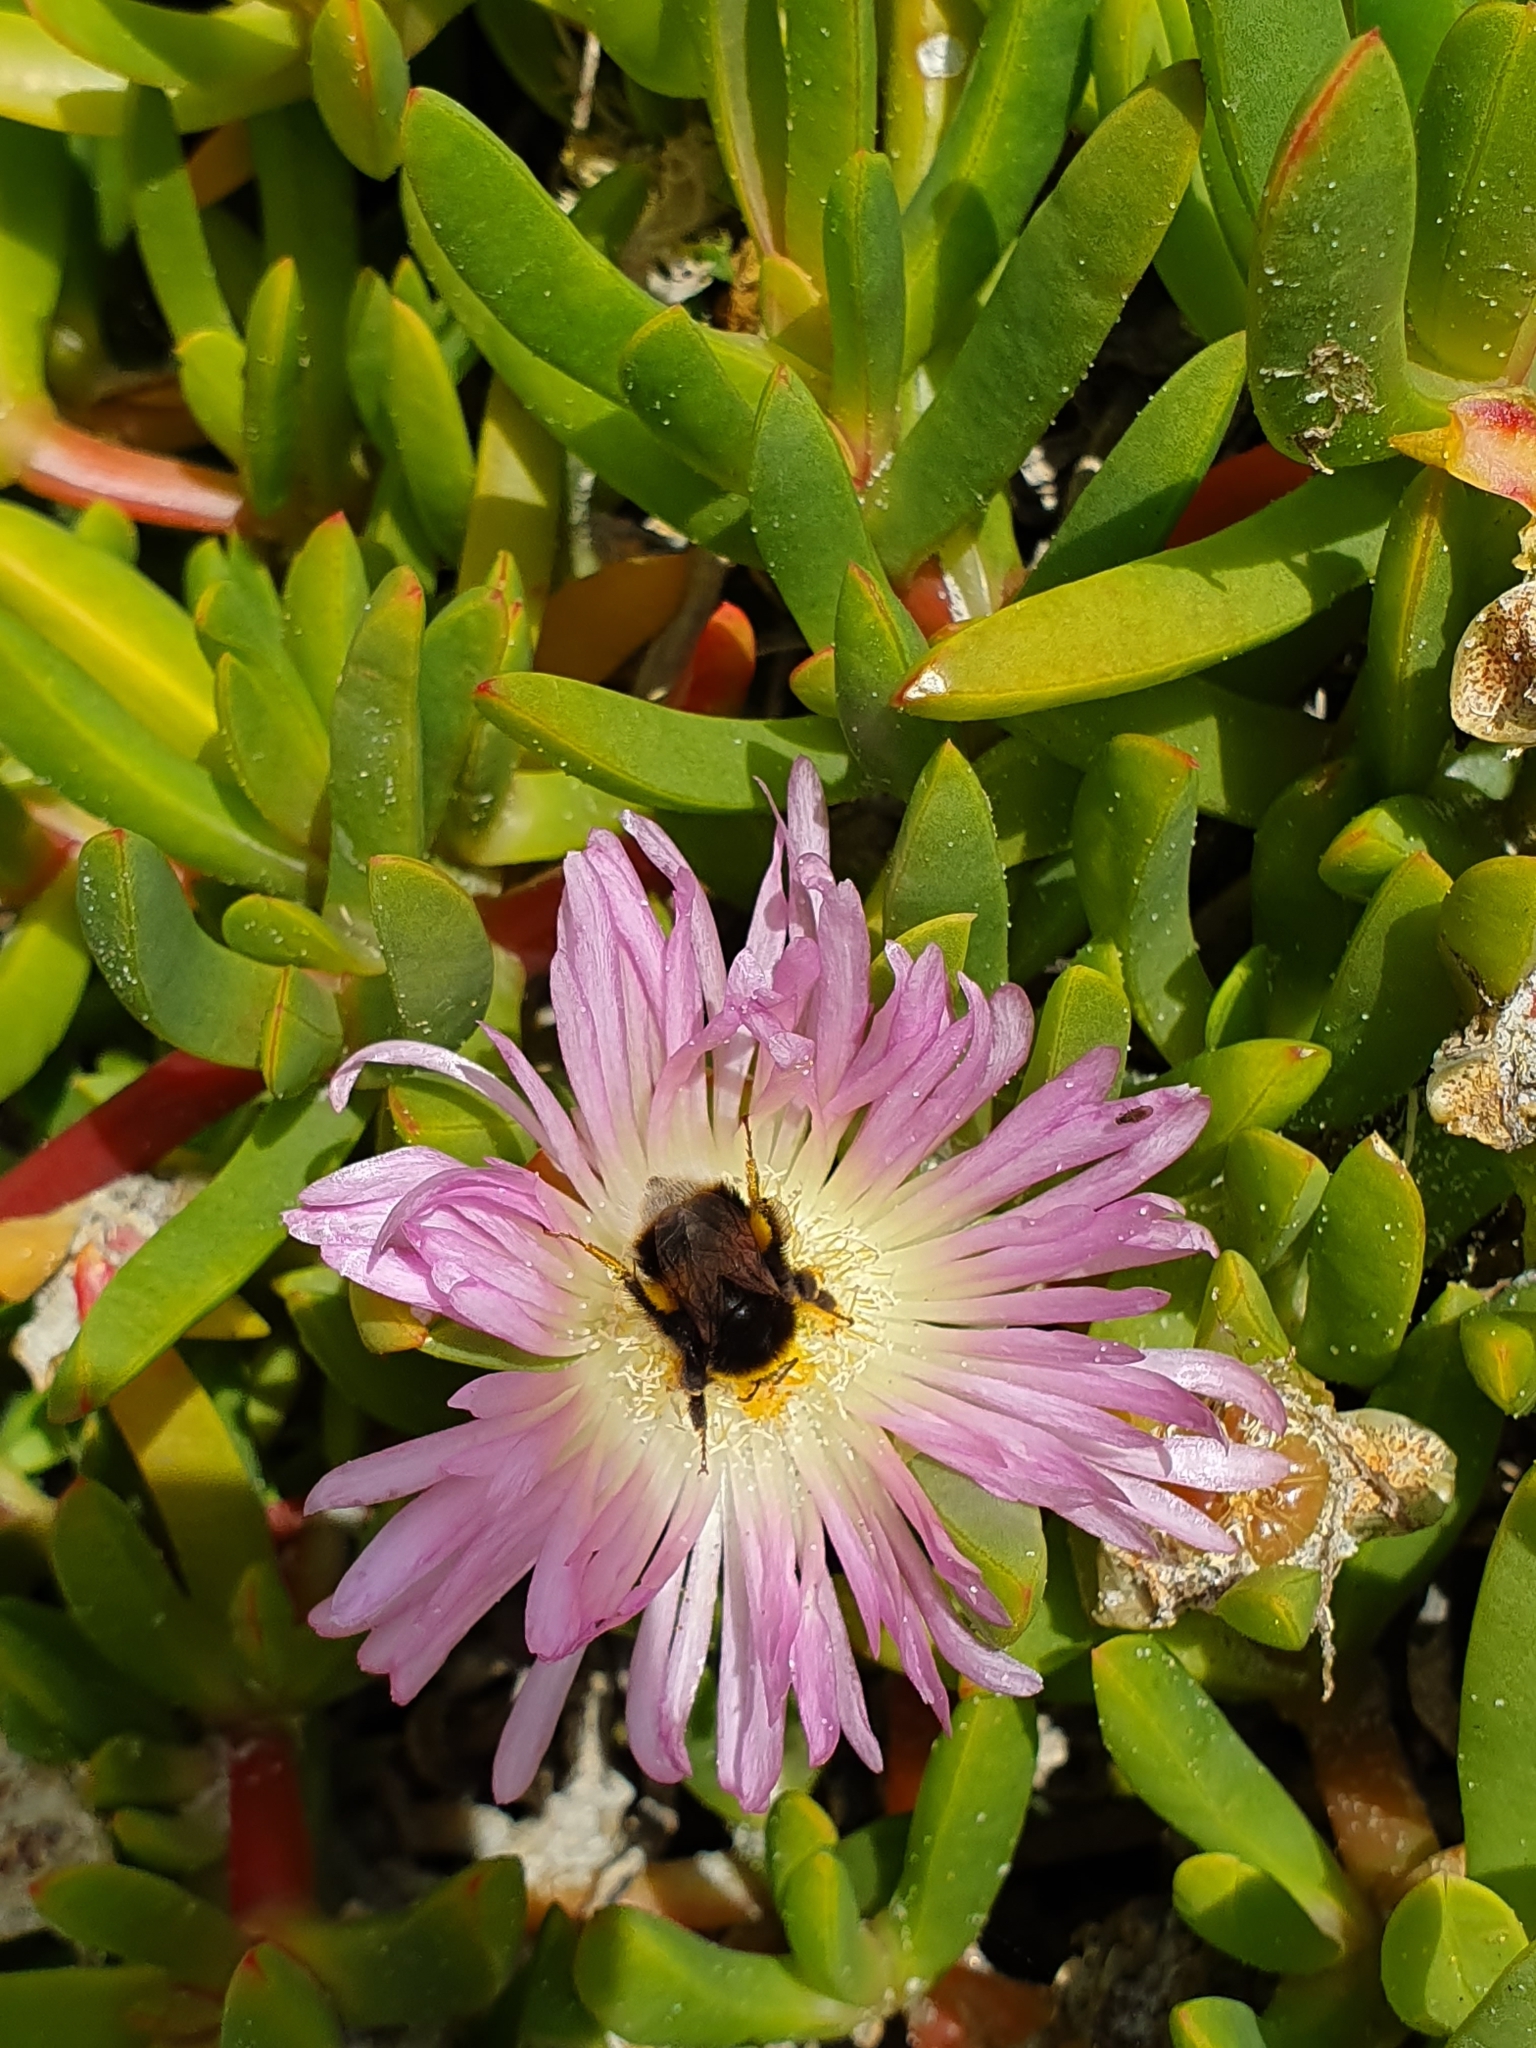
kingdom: Animalia
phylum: Arthropoda
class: Insecta
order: Hymenoptera
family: Apidae
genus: Bombus
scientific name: Bombus terrestris
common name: Buff-tailed bumblebee
